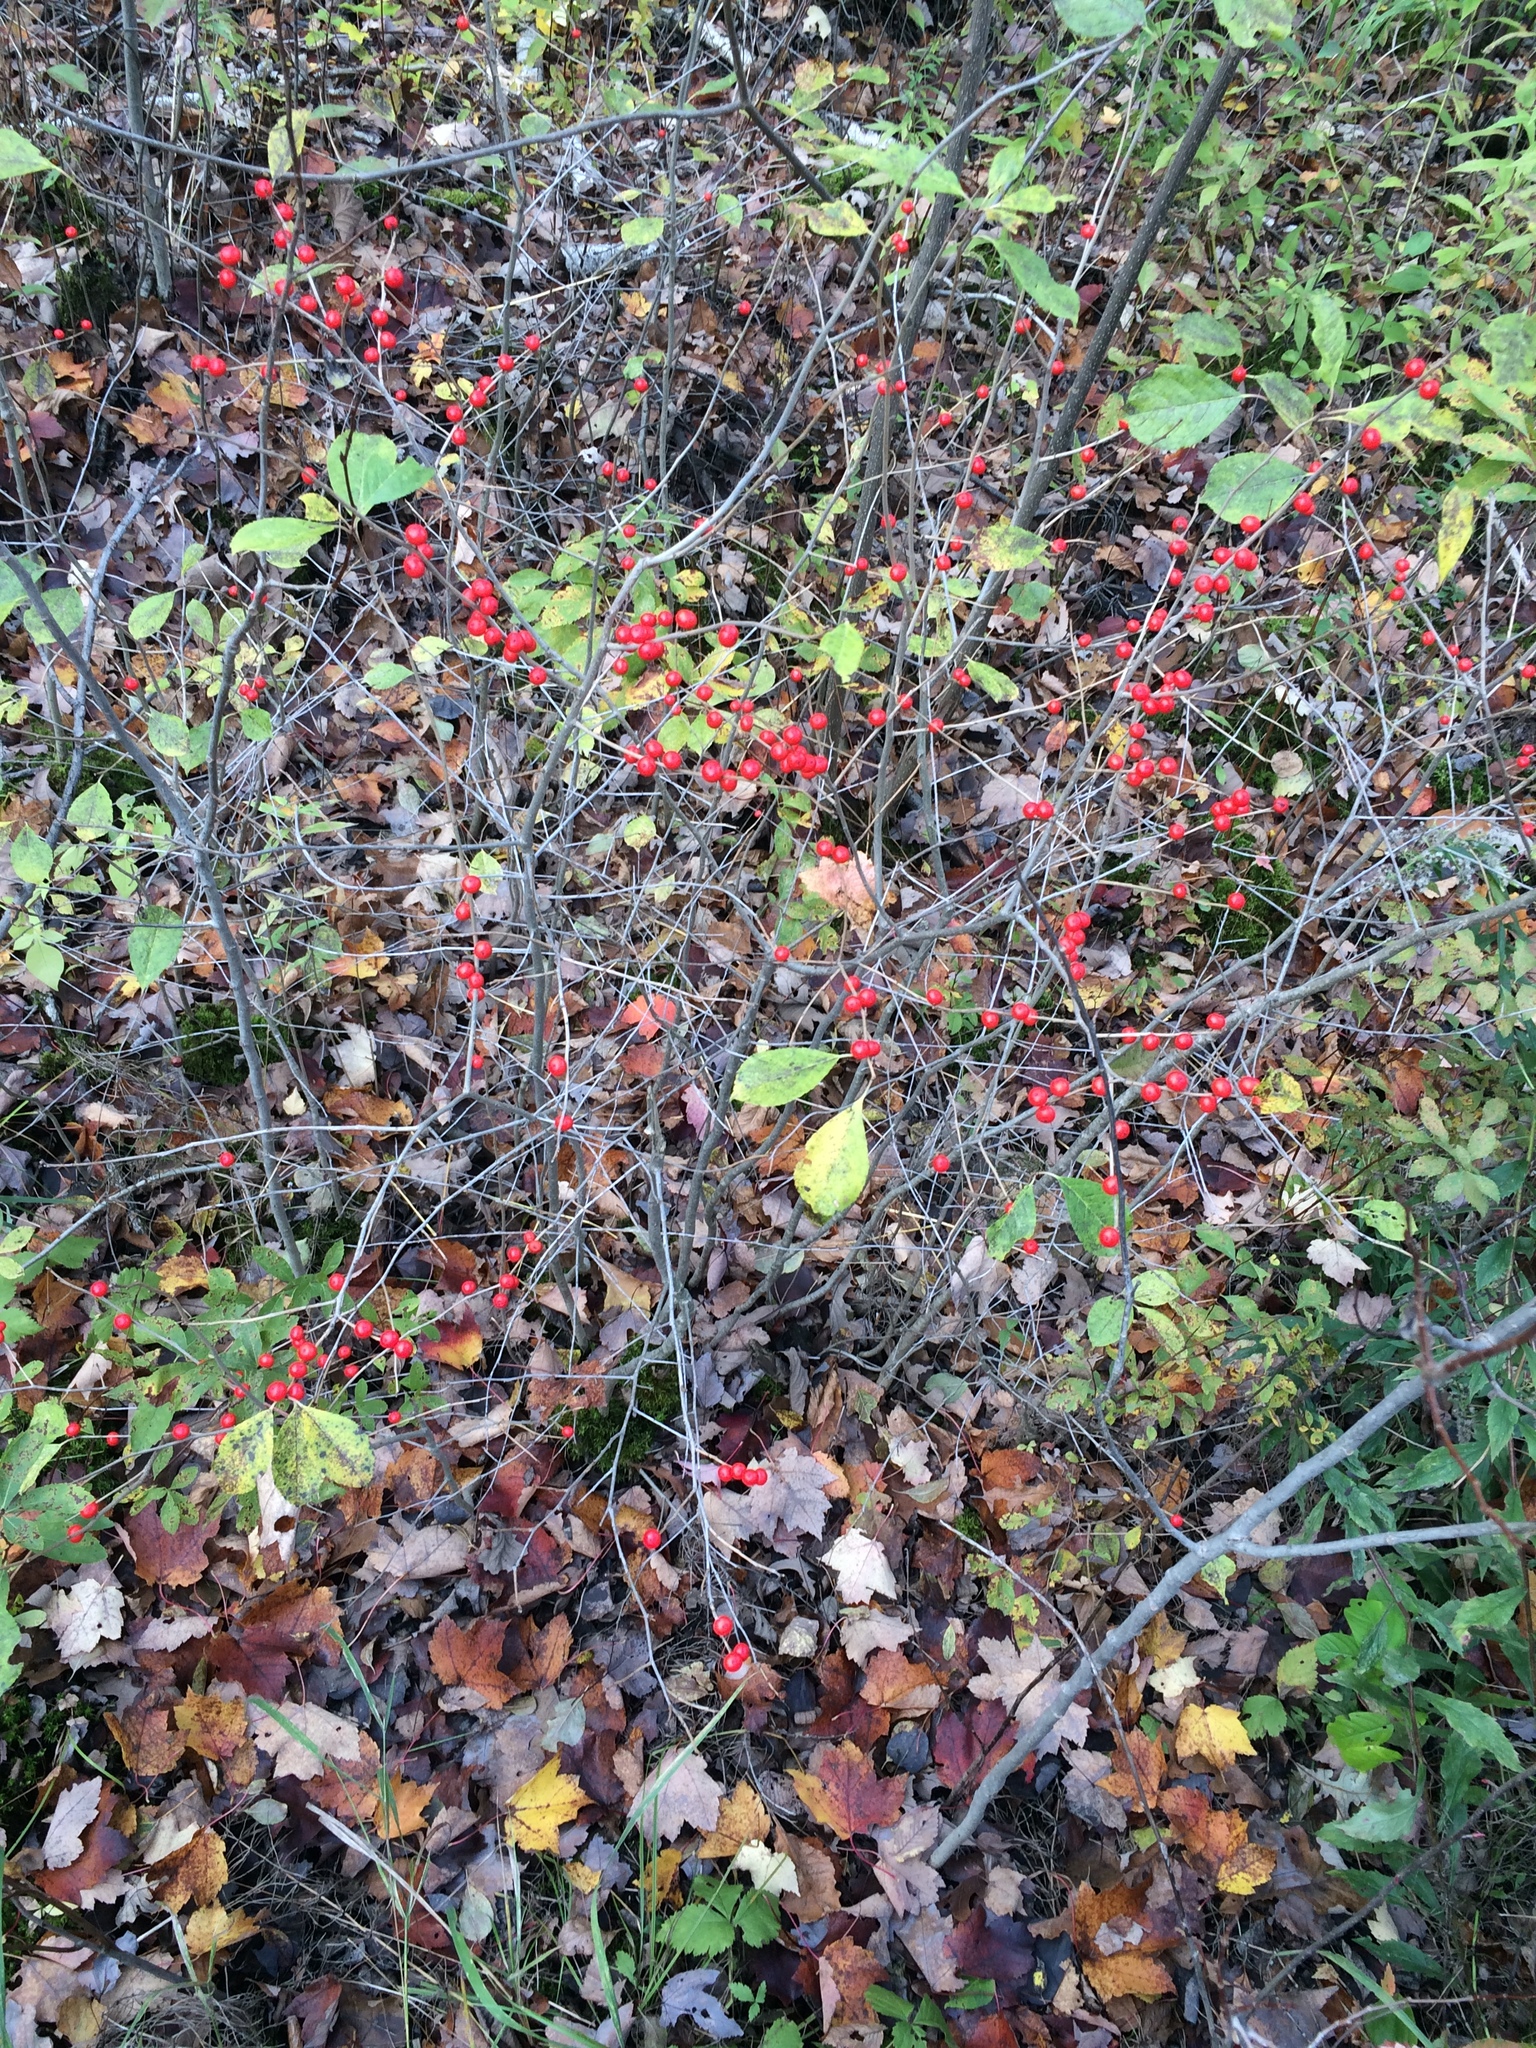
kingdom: Plantae
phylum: Tracheophyta
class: Magnoliopsida
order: Aquifoliales
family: Aquifoliaceae
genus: Ilex
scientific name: Ilex verticillata
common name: Virginia winterberry
